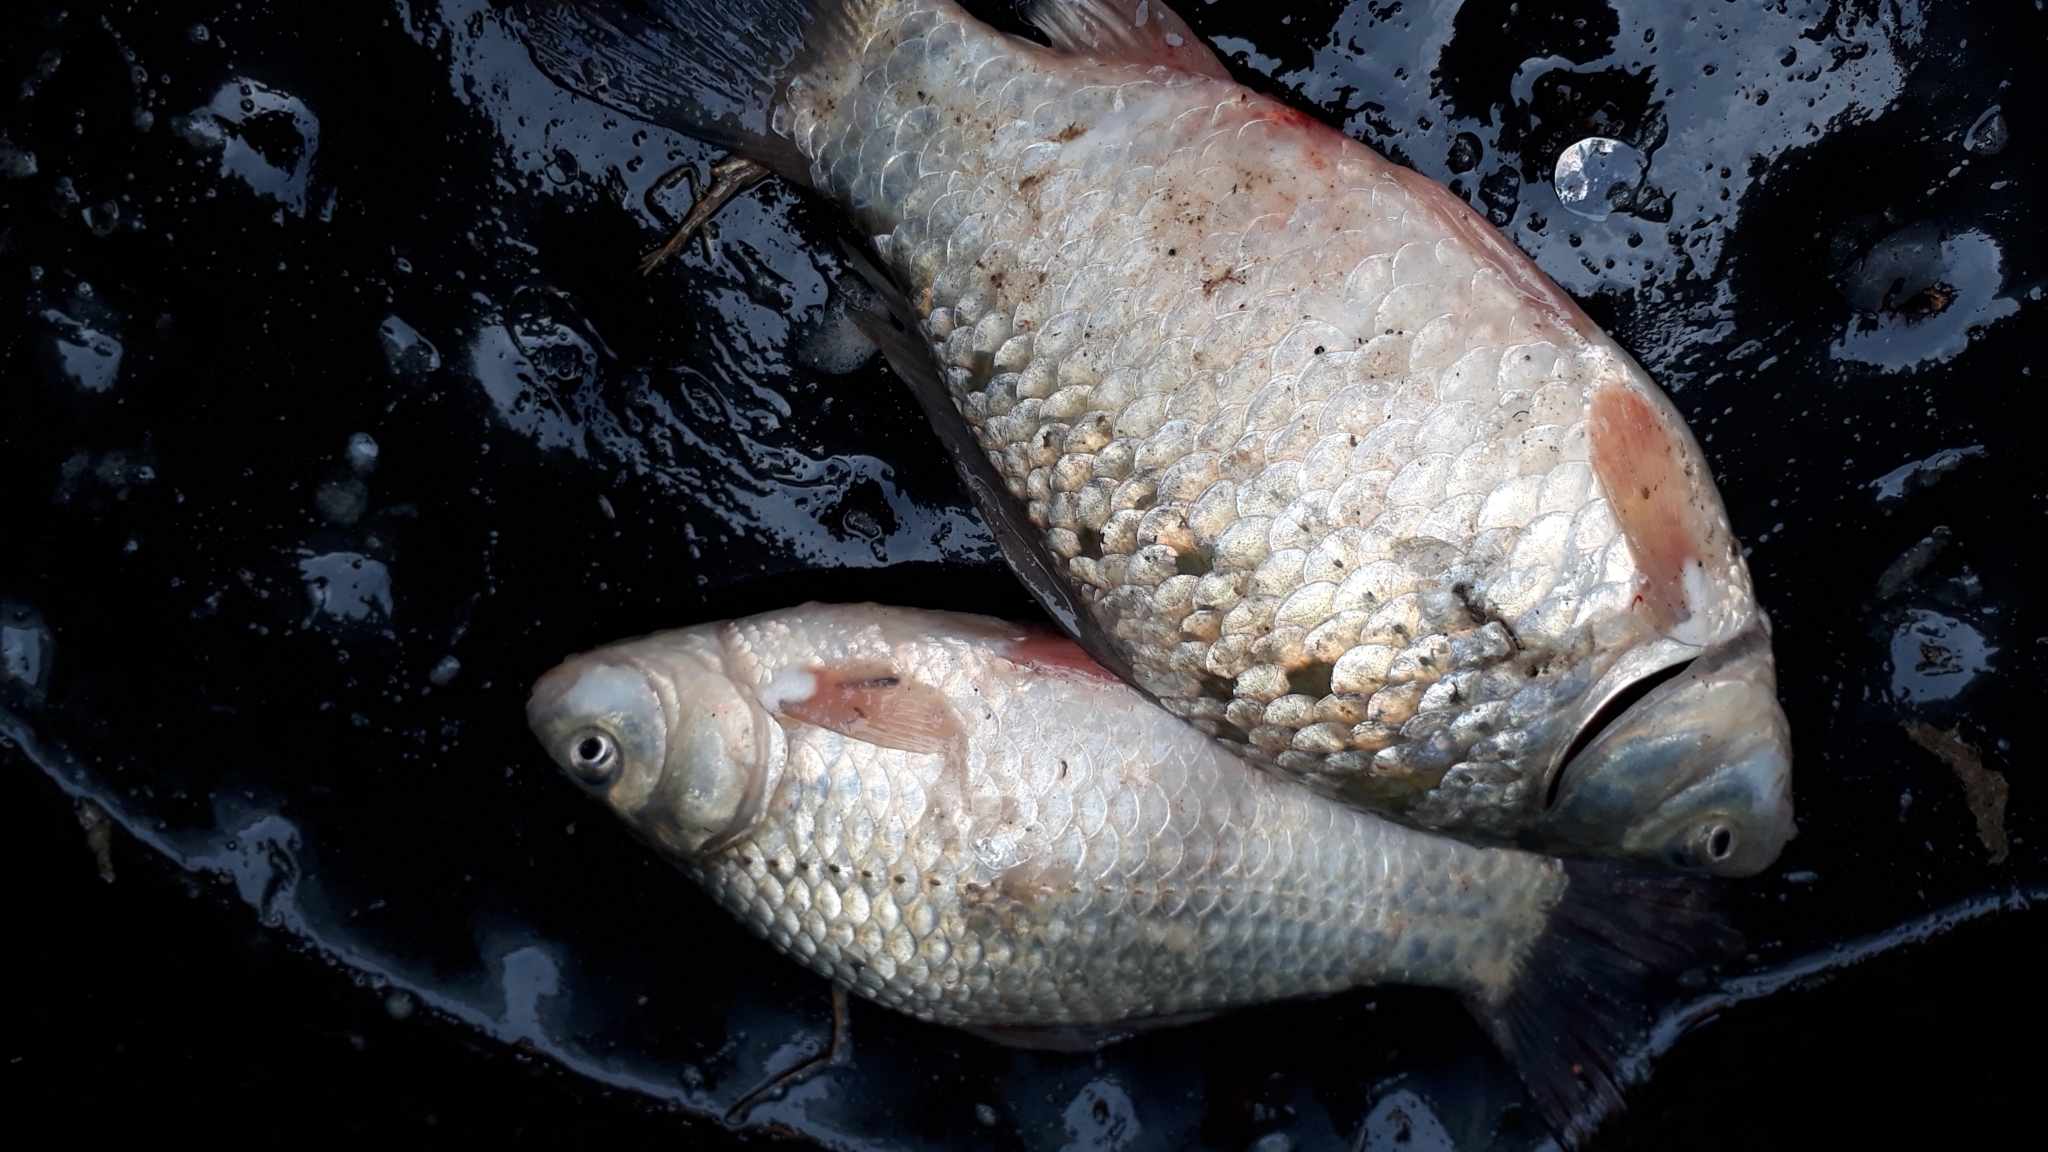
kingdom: Animalia
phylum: Chordata
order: Cypriniformes
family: Cyprinidae
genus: Carassius
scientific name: Carassius auratus
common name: Goldfish
